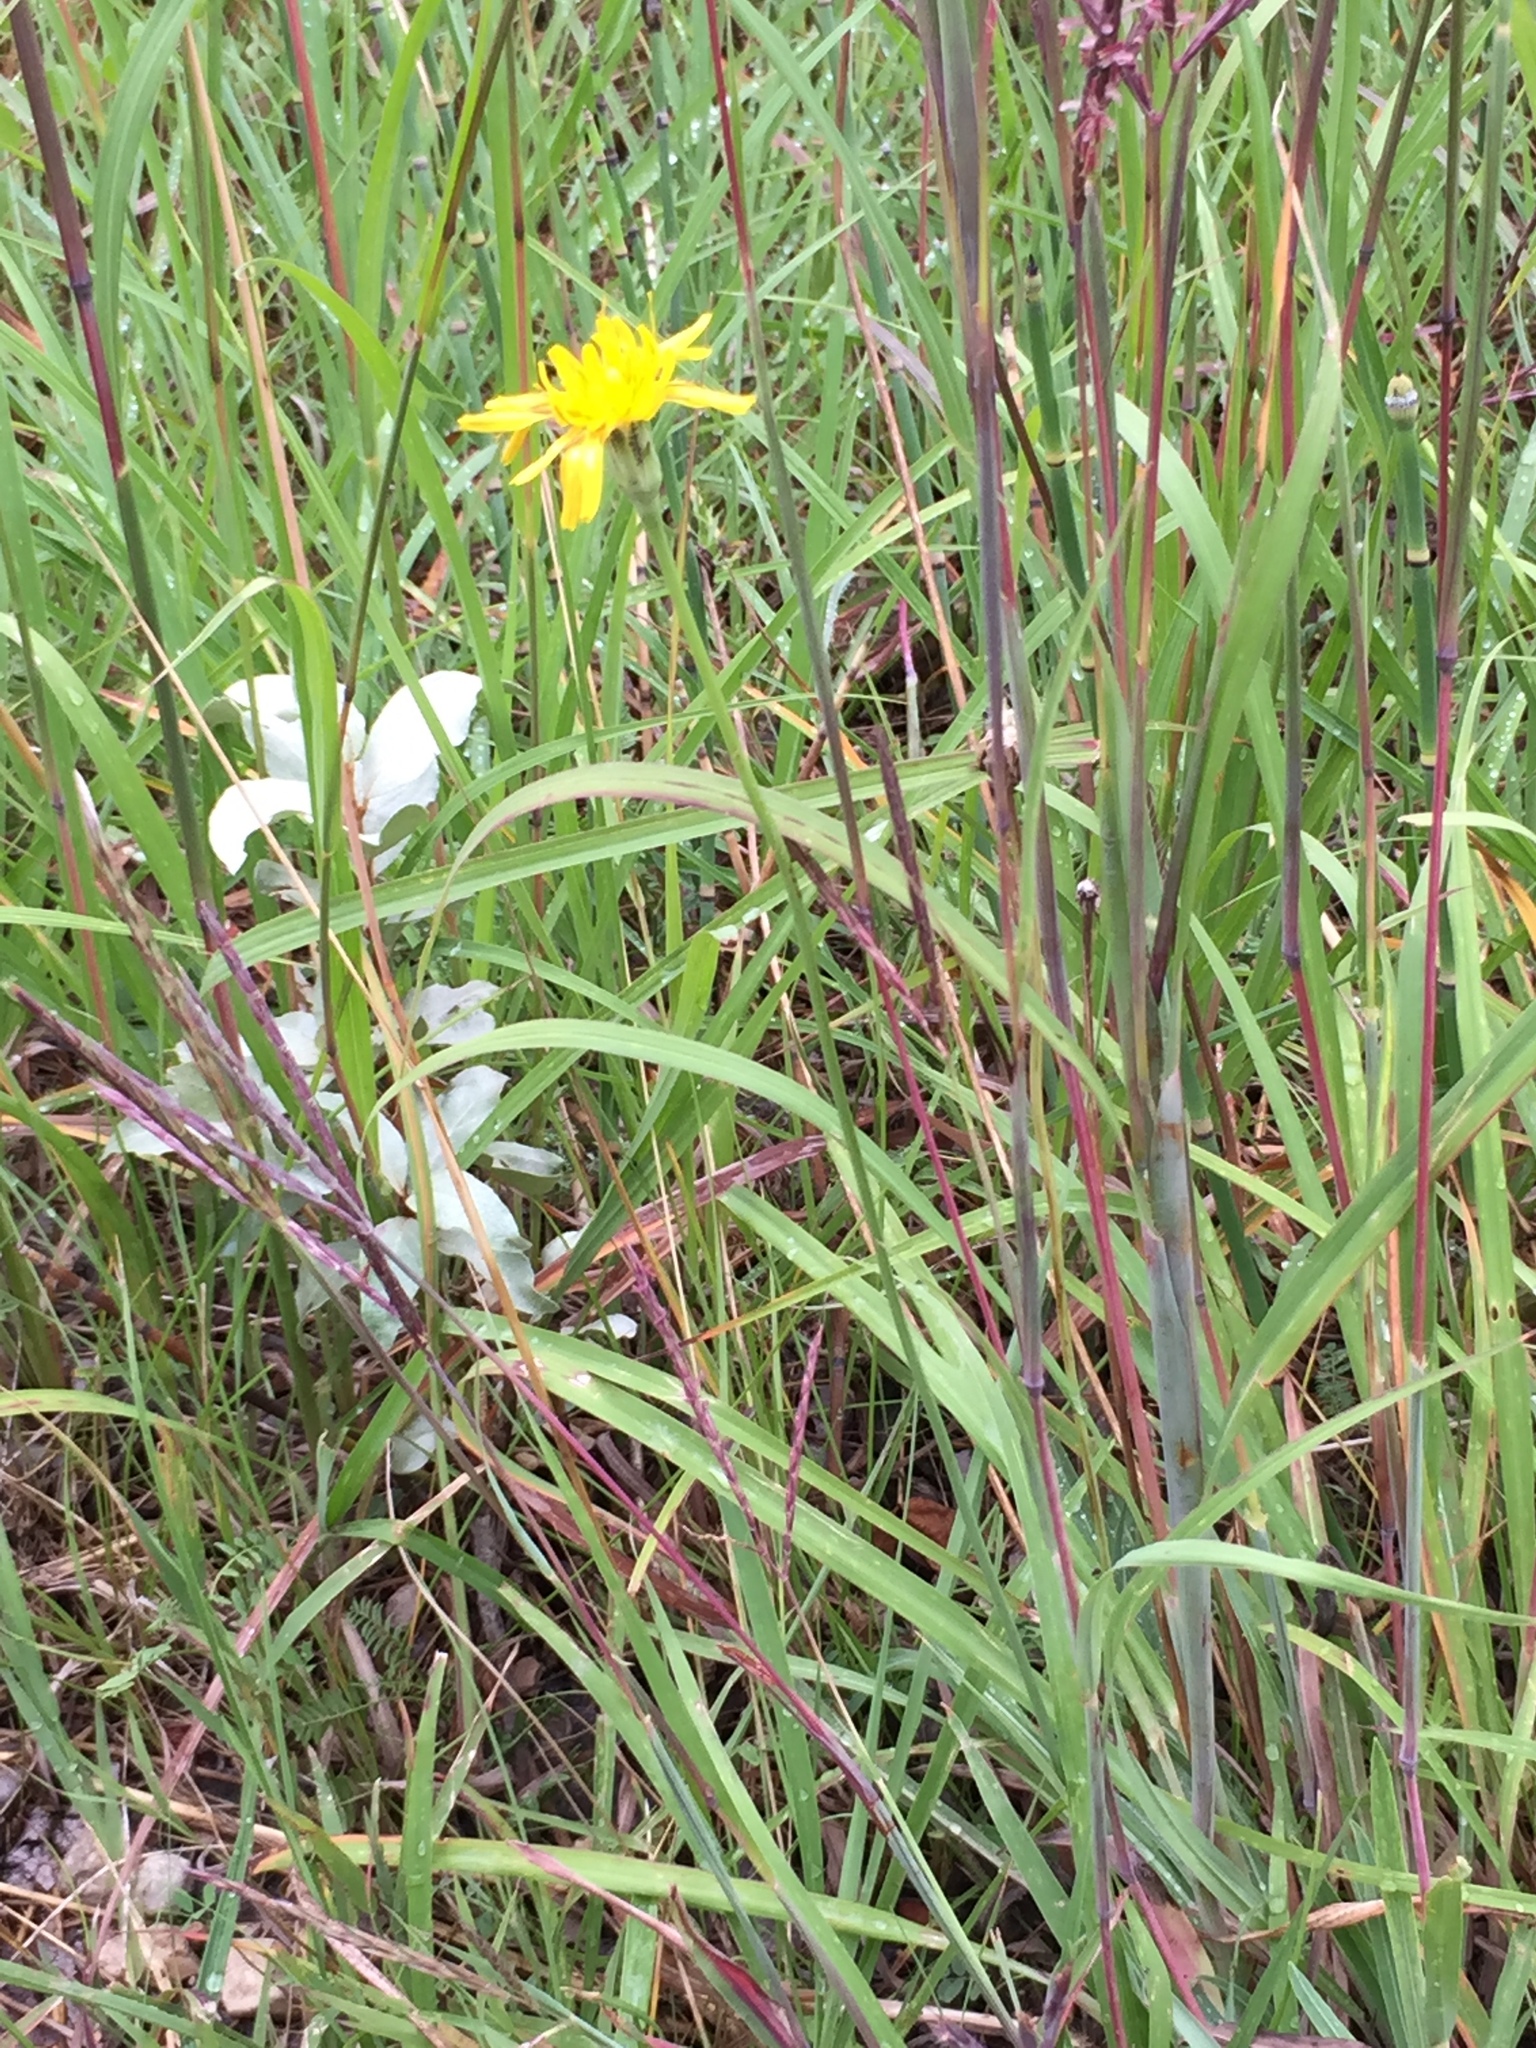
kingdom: Plantae
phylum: Tracheophyta
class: Magnoliopsida
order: Asterales
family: Asteraceae
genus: Agoseris
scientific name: Agoseris glauca
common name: Prairie agoseris
